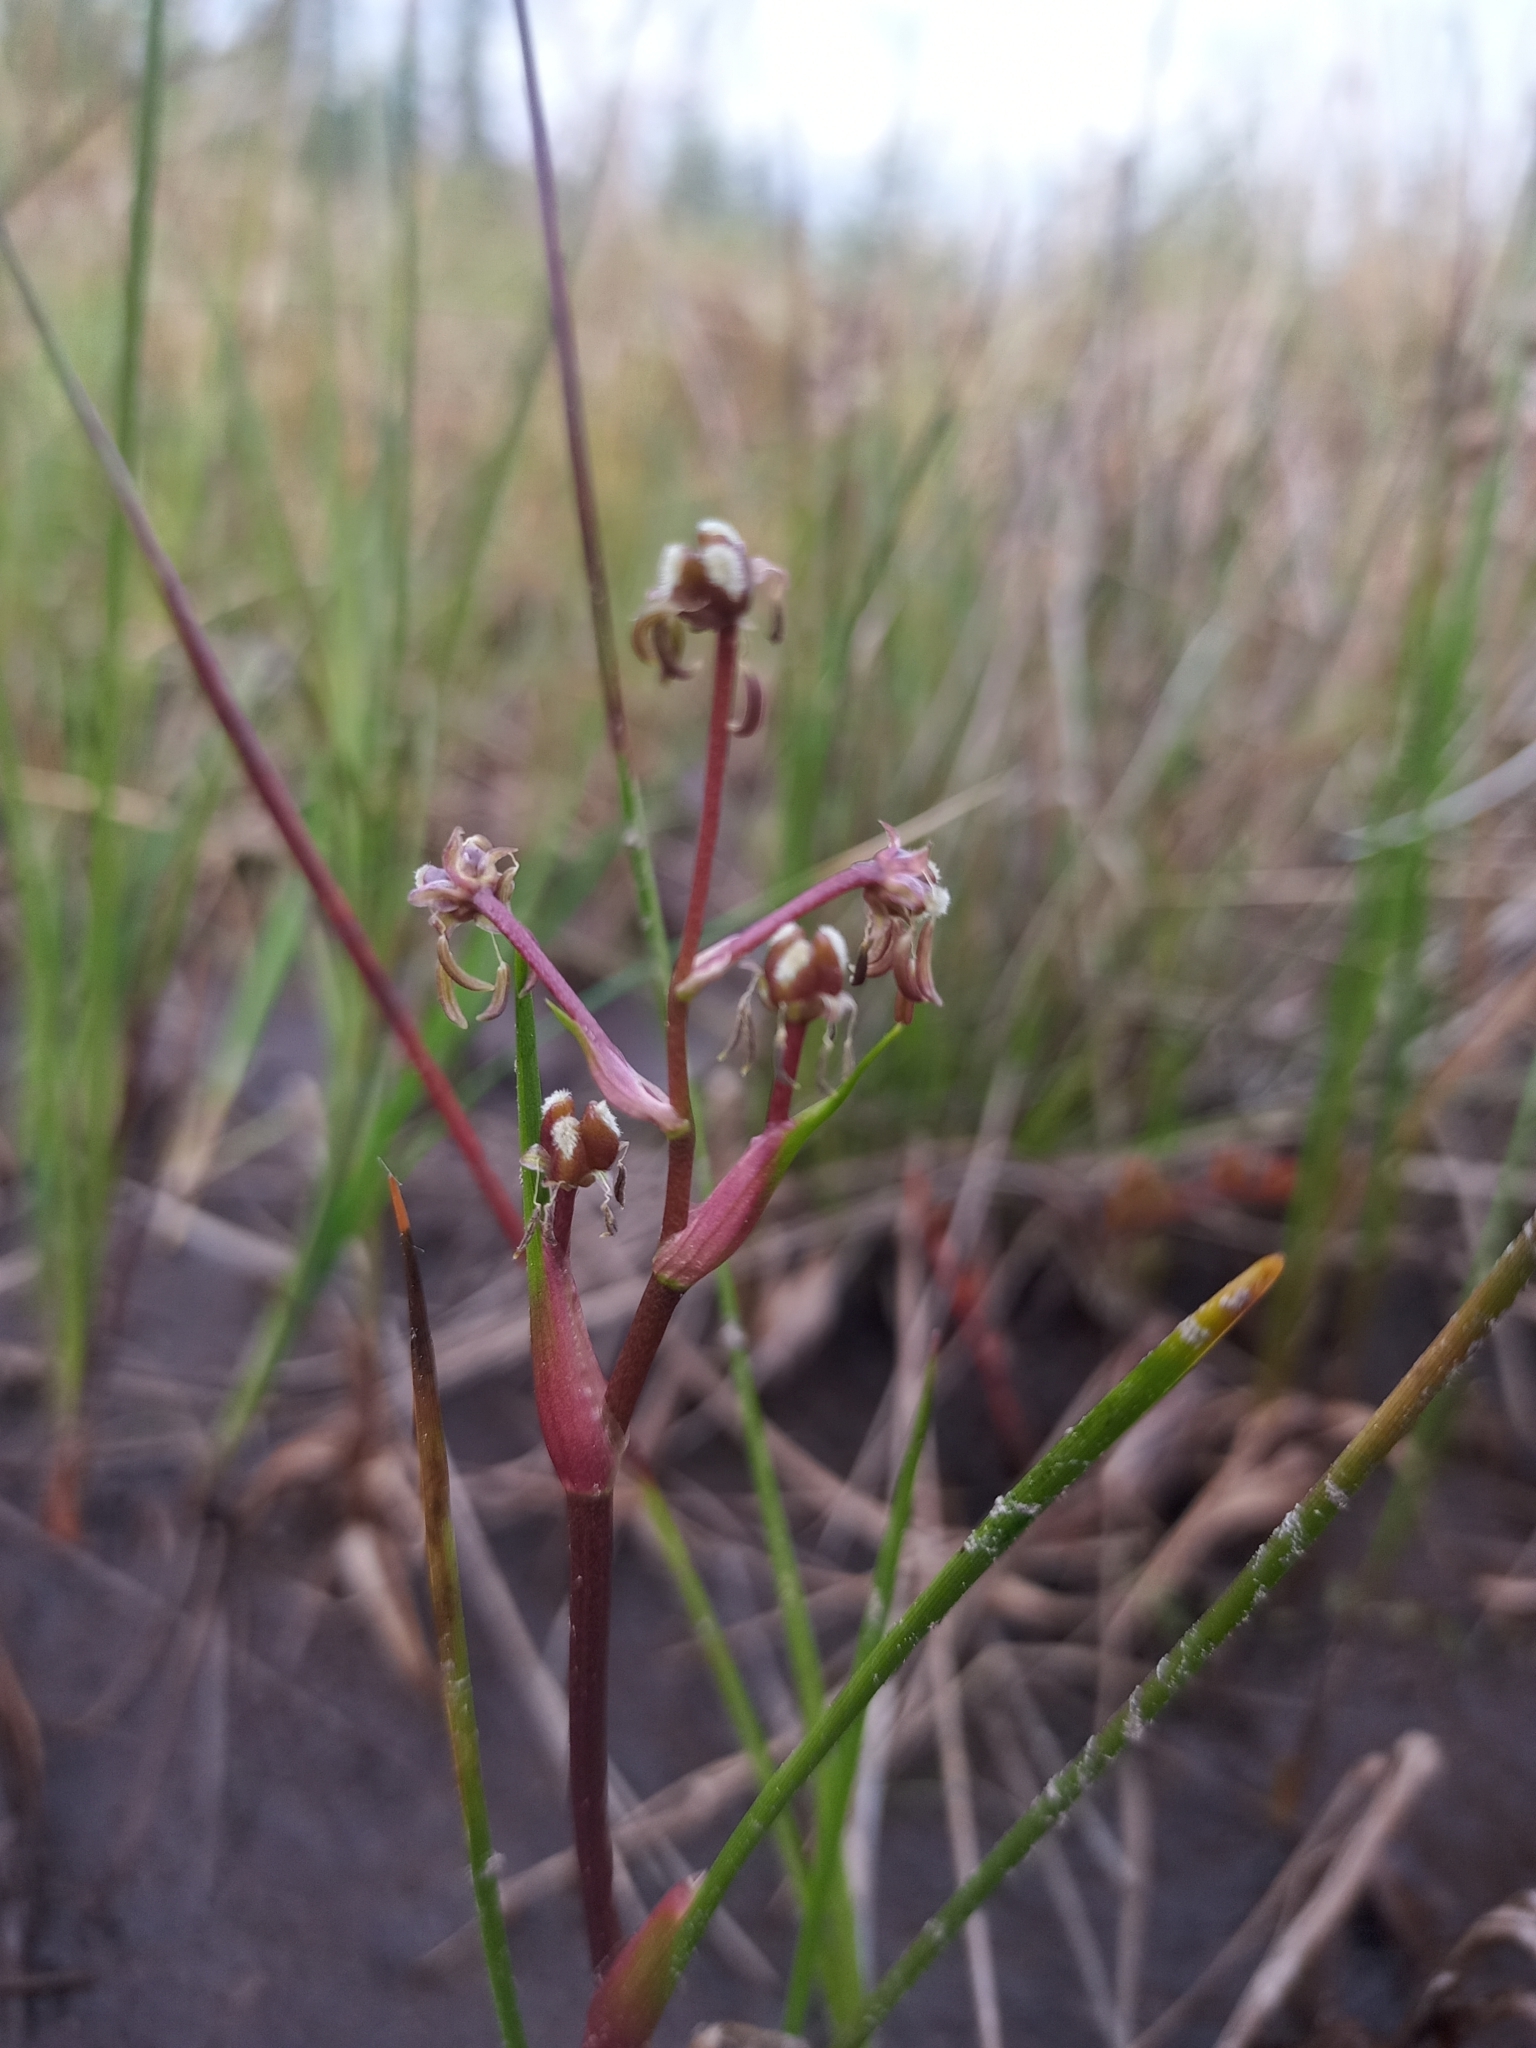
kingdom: Plantae
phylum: Tracheophyta
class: Liliopsida
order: Alismatales
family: Scheuchzeriaceae
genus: Scheuchzeria
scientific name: Scheuchzeria palustris
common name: Rannoch-rush
